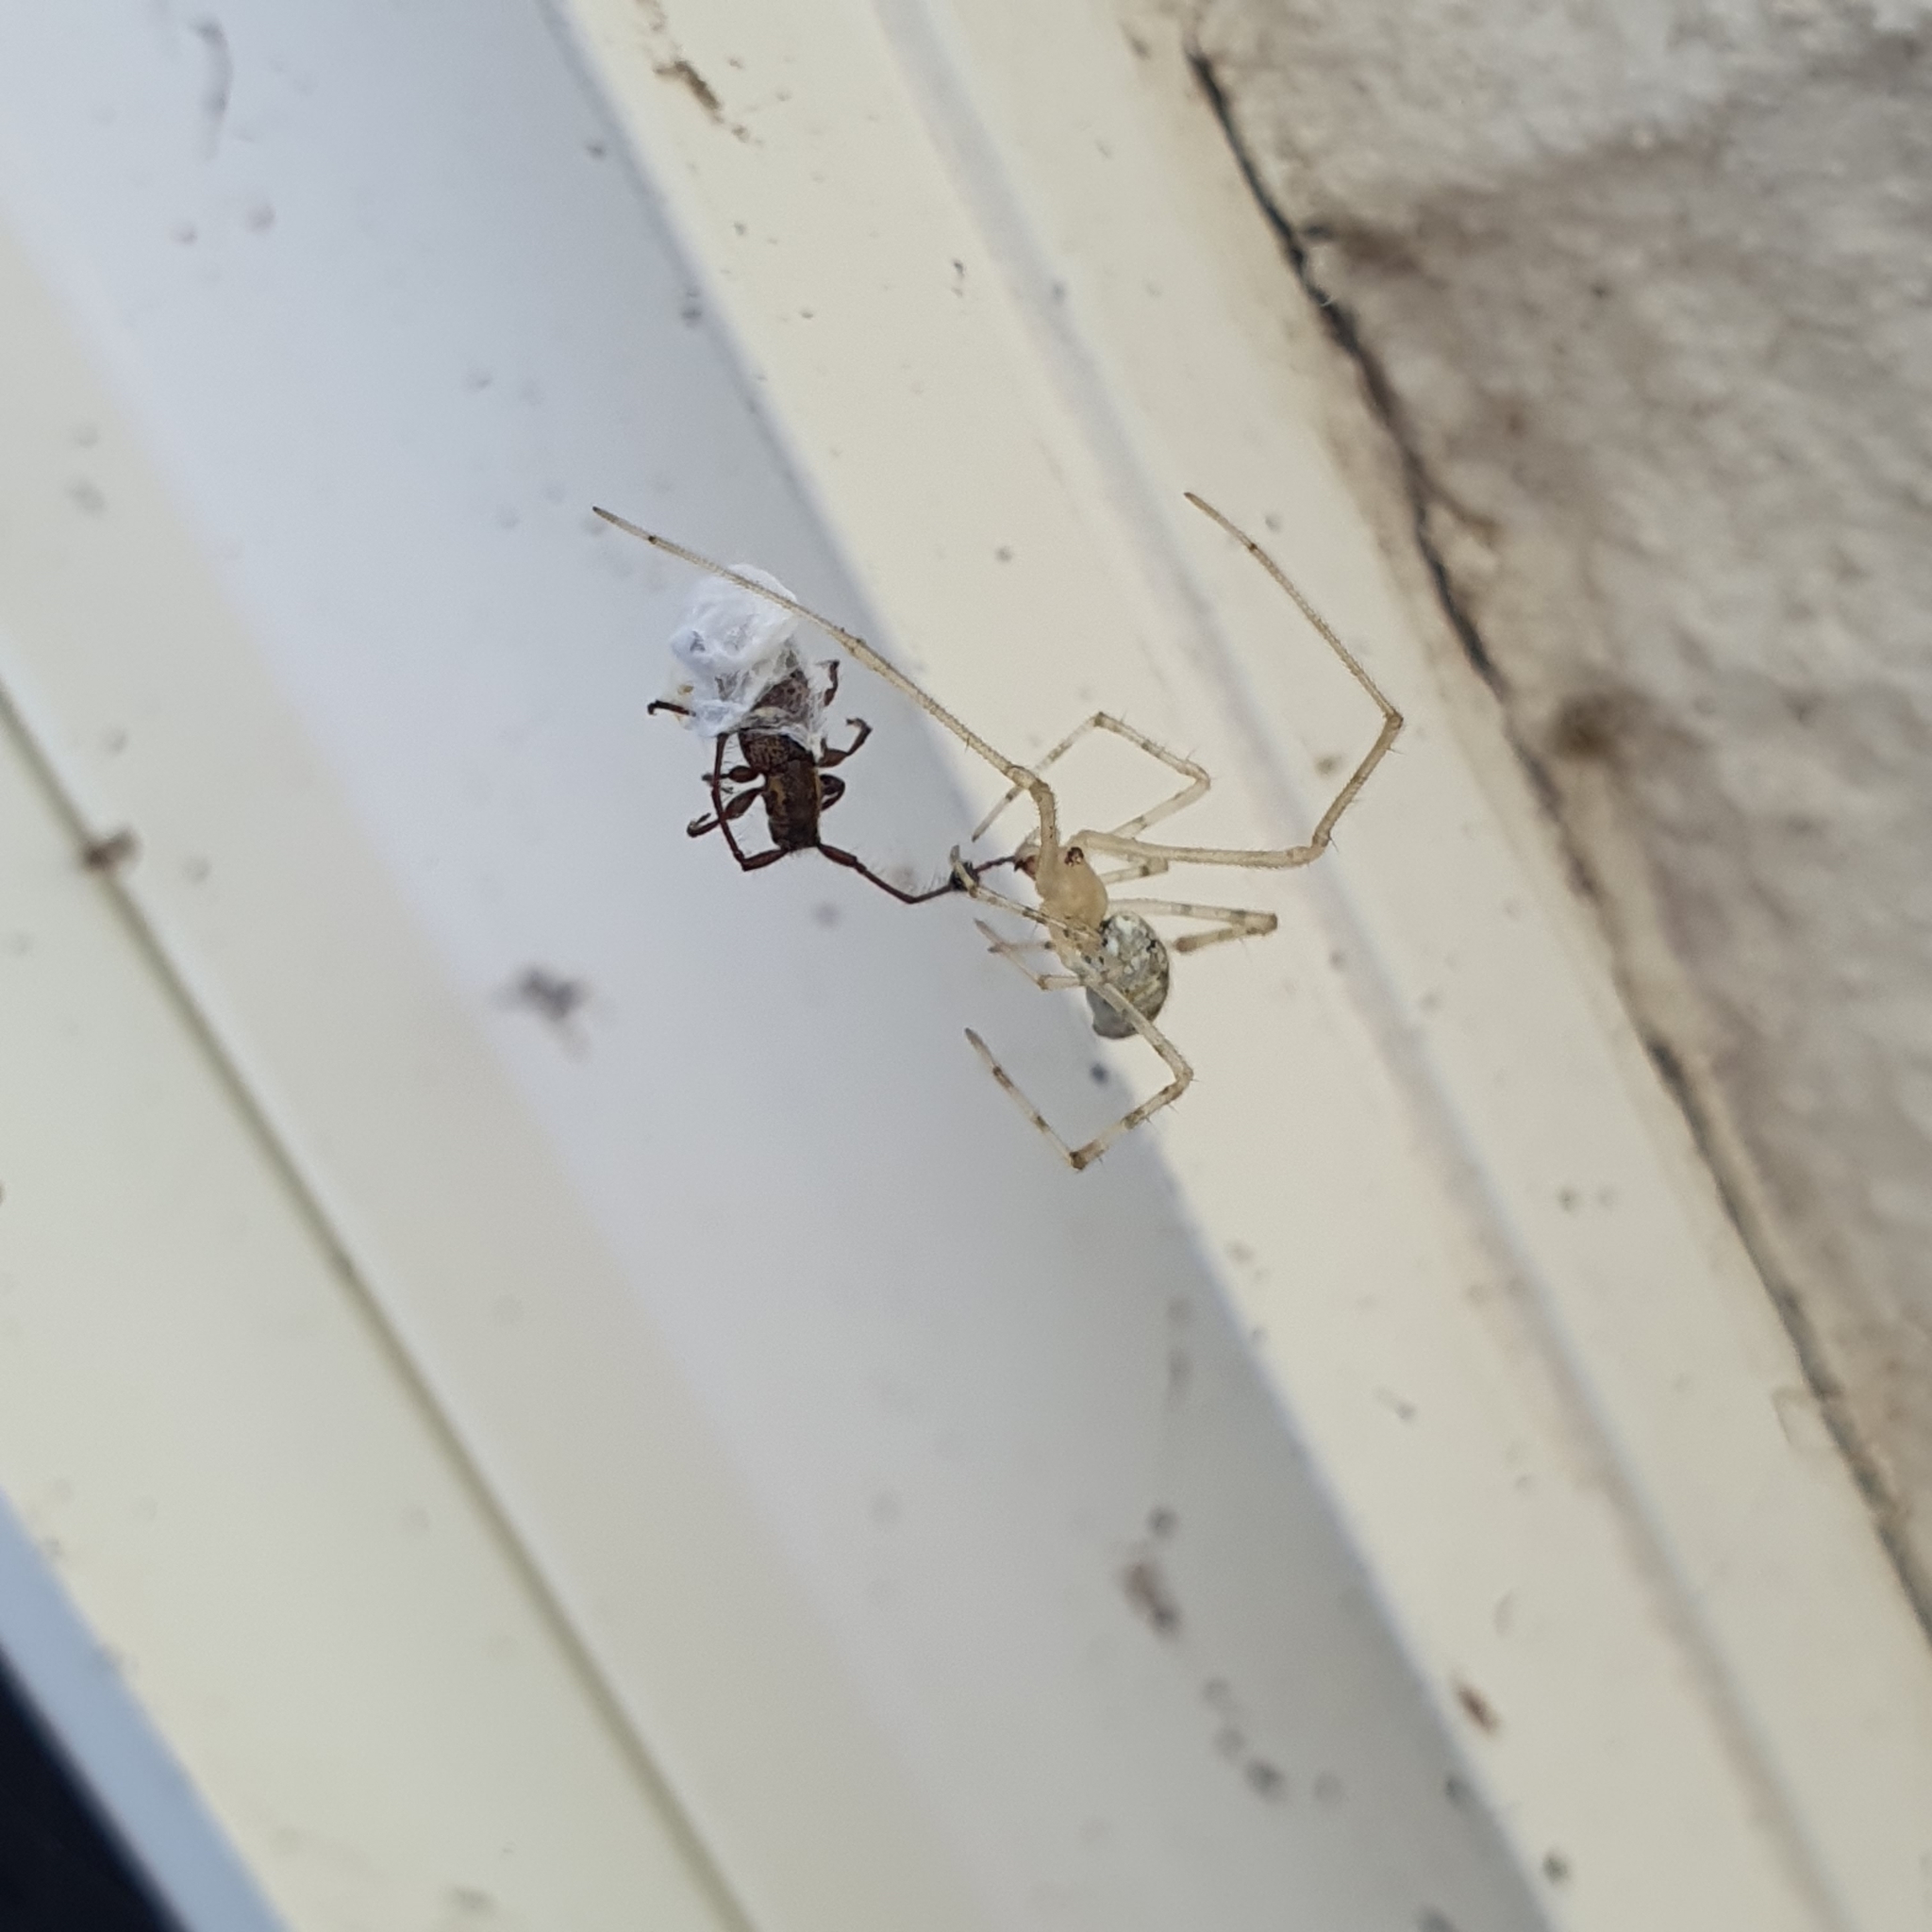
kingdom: Animalia
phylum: Arthropoda
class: Arachnida
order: Araneae
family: Theridiidae
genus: Cryptachaea
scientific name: Cryptachaea gigantipes
